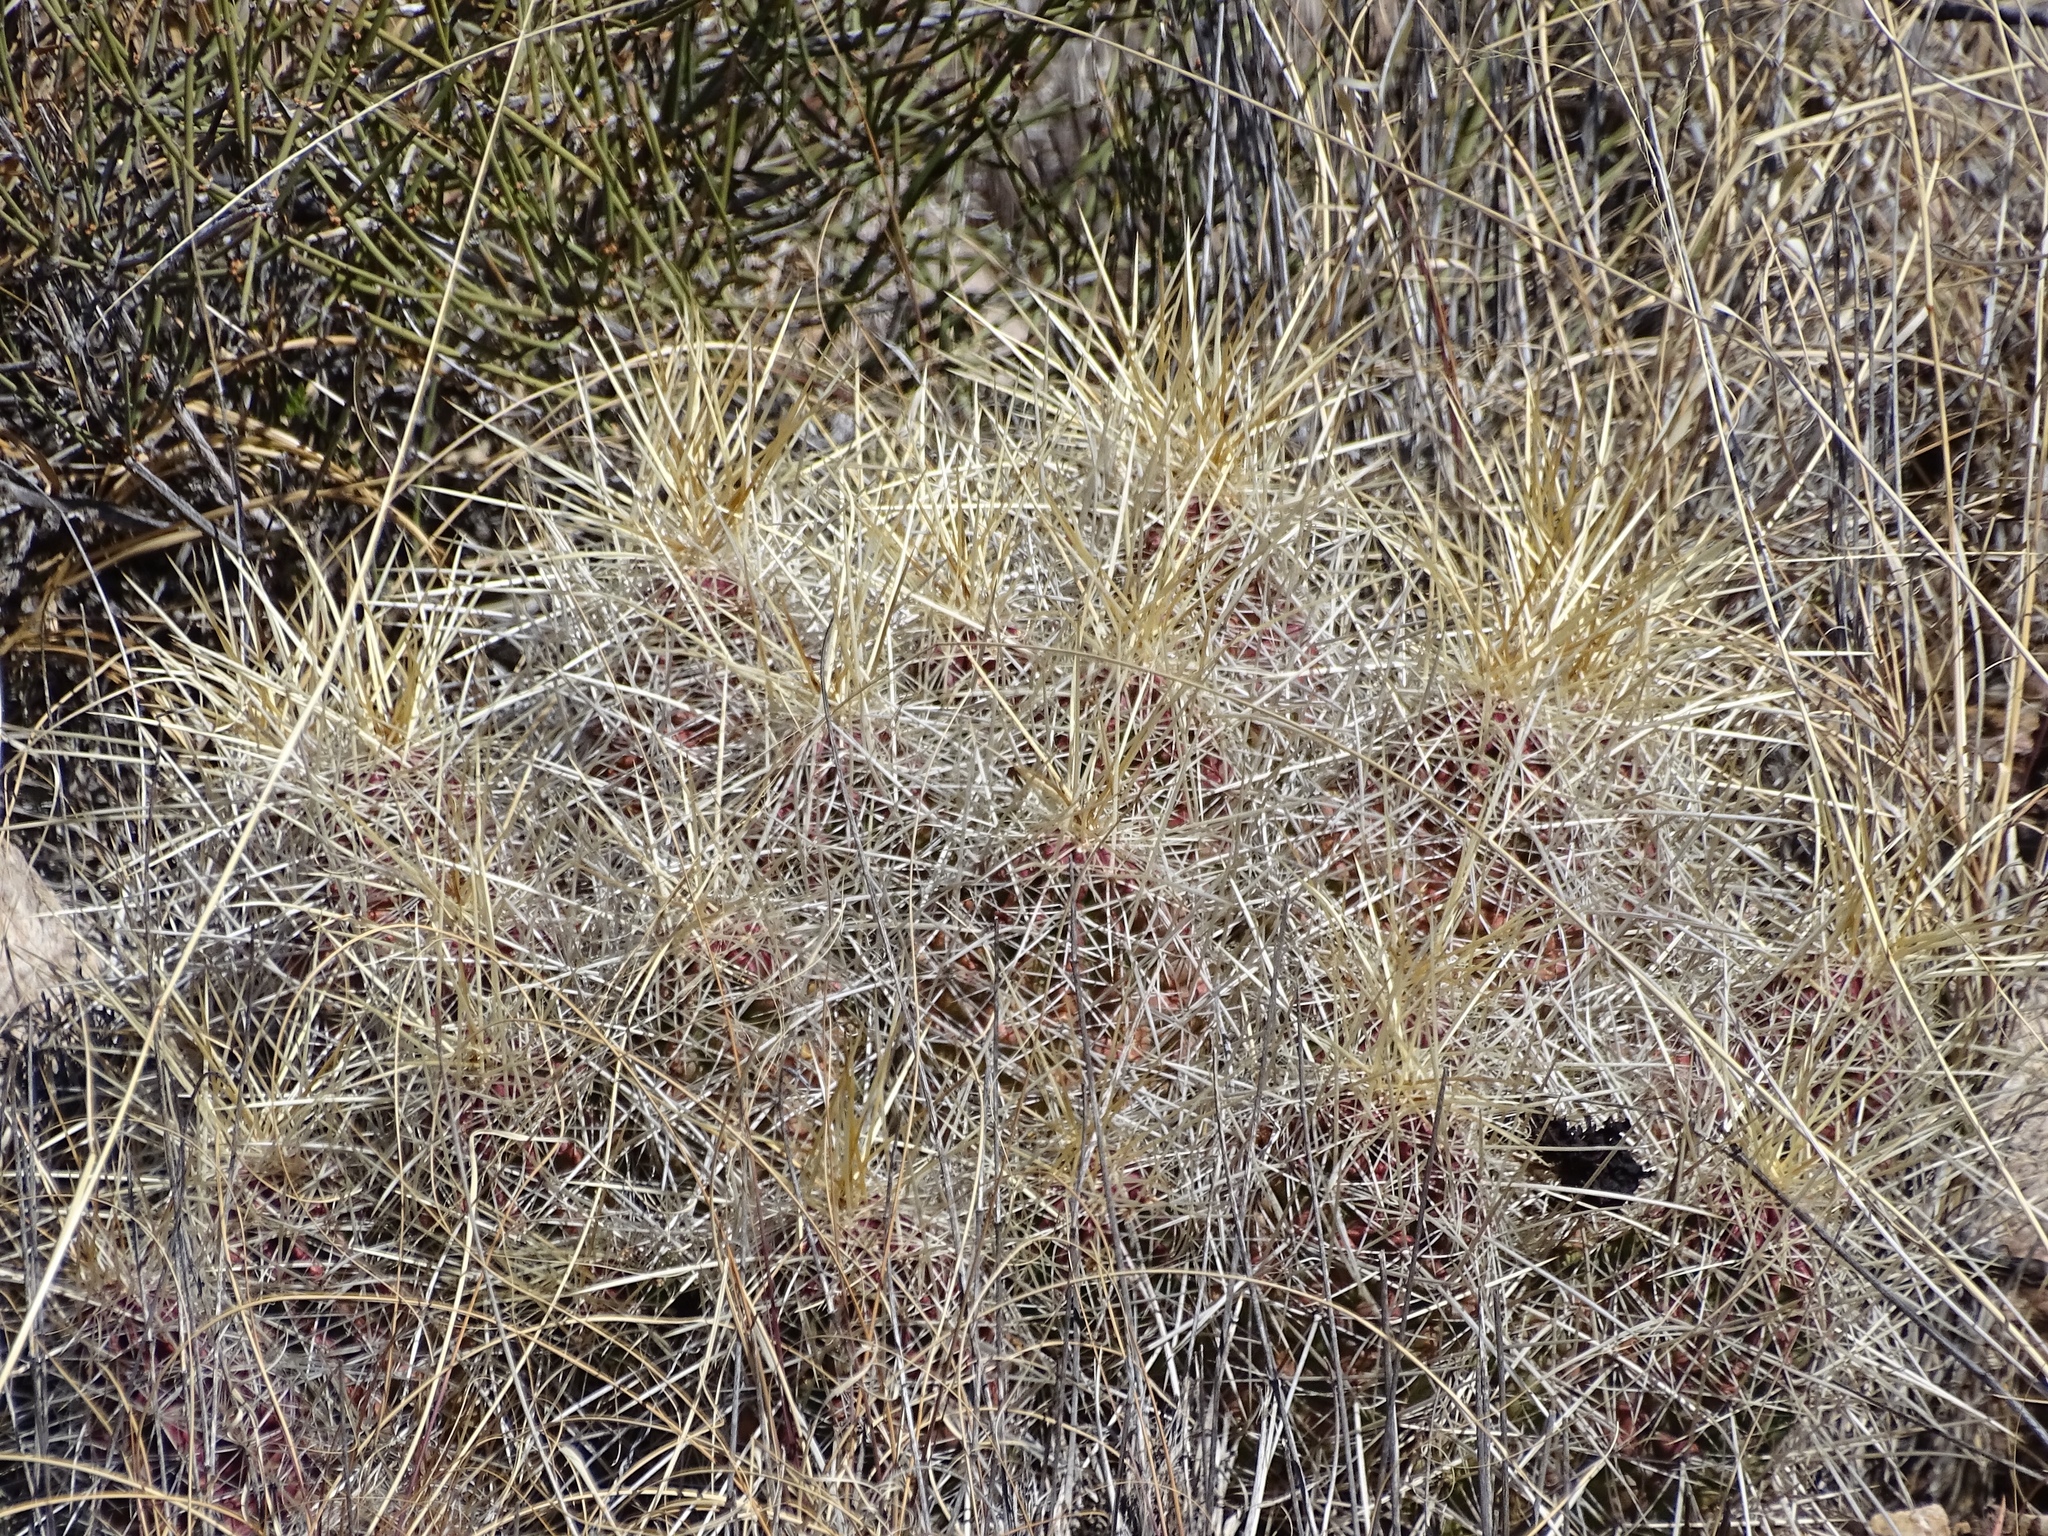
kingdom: Plantae
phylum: Tracheophyta
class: Magnoliopsida
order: Caryophyllales
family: Cactaceae
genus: Echinocereus
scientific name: Echinocereus stramineus
